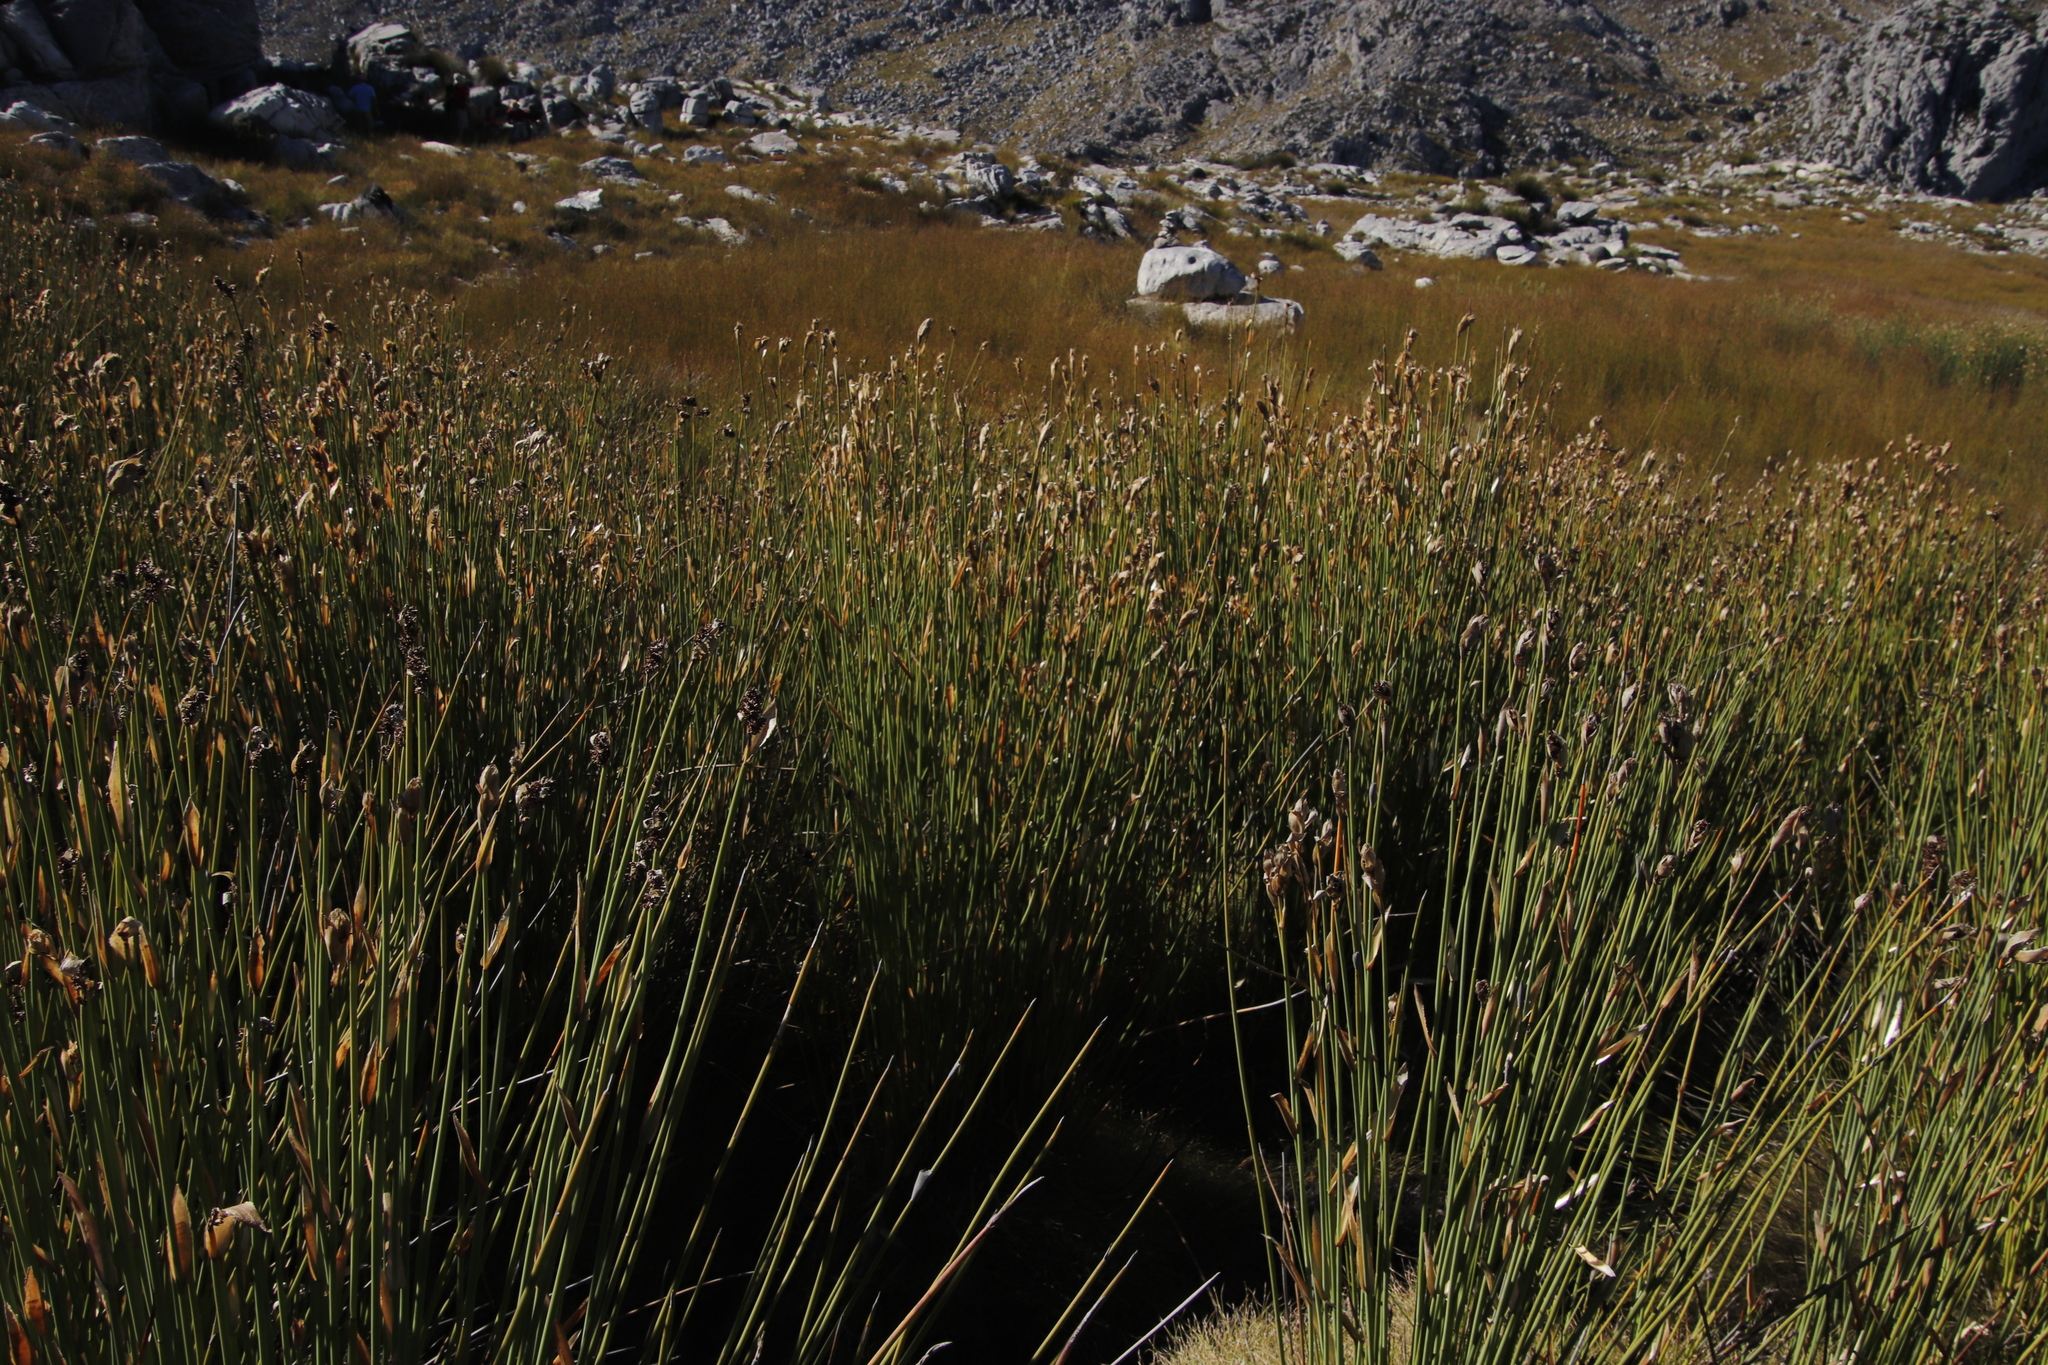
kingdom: Plantae
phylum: Tracheophyta
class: Liliopsida
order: Poales
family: Restionaceae
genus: Elegia
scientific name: Elegia mucronata
